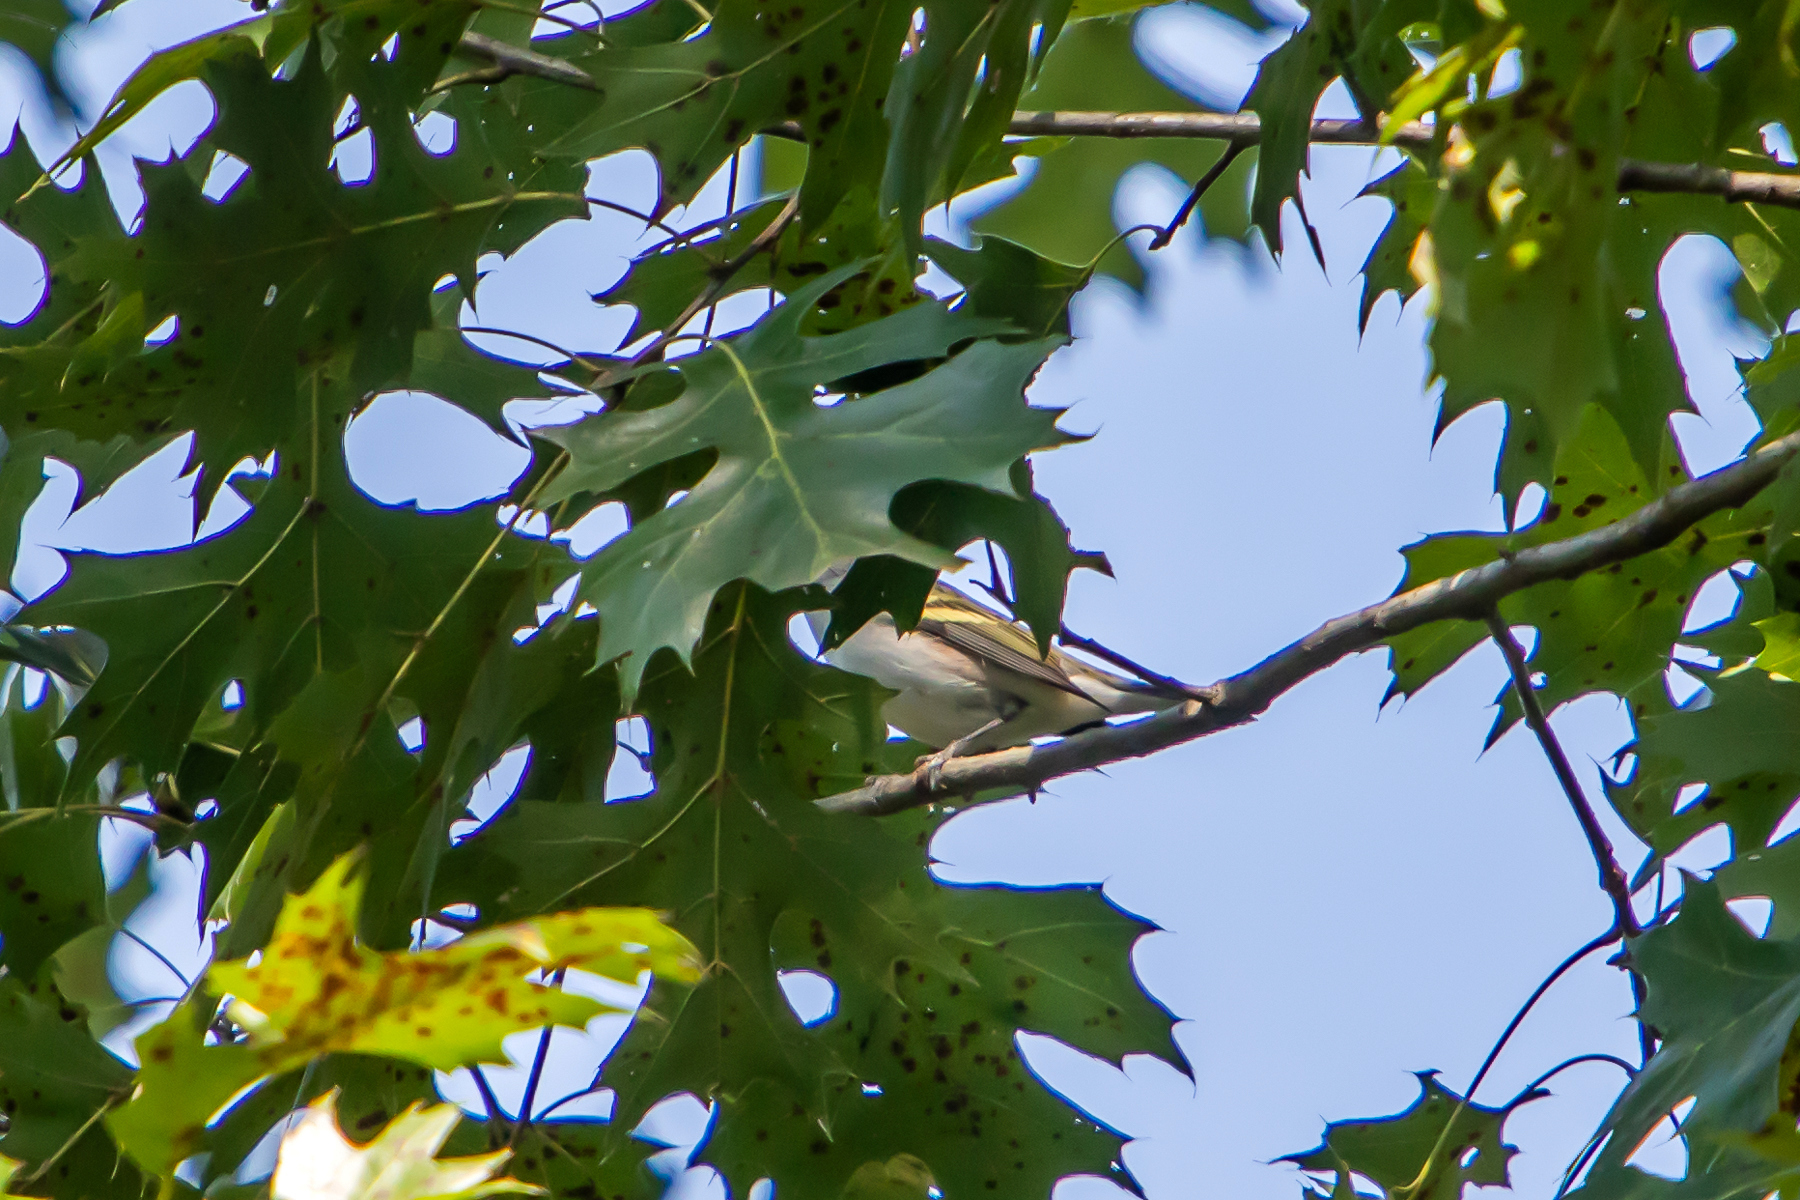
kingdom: Animalia
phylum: Chordata
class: Aves
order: Passeriformes
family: Parulidae
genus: Setophaga
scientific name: Setophaga pensylvanica
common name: Chestnut-sided warbler
